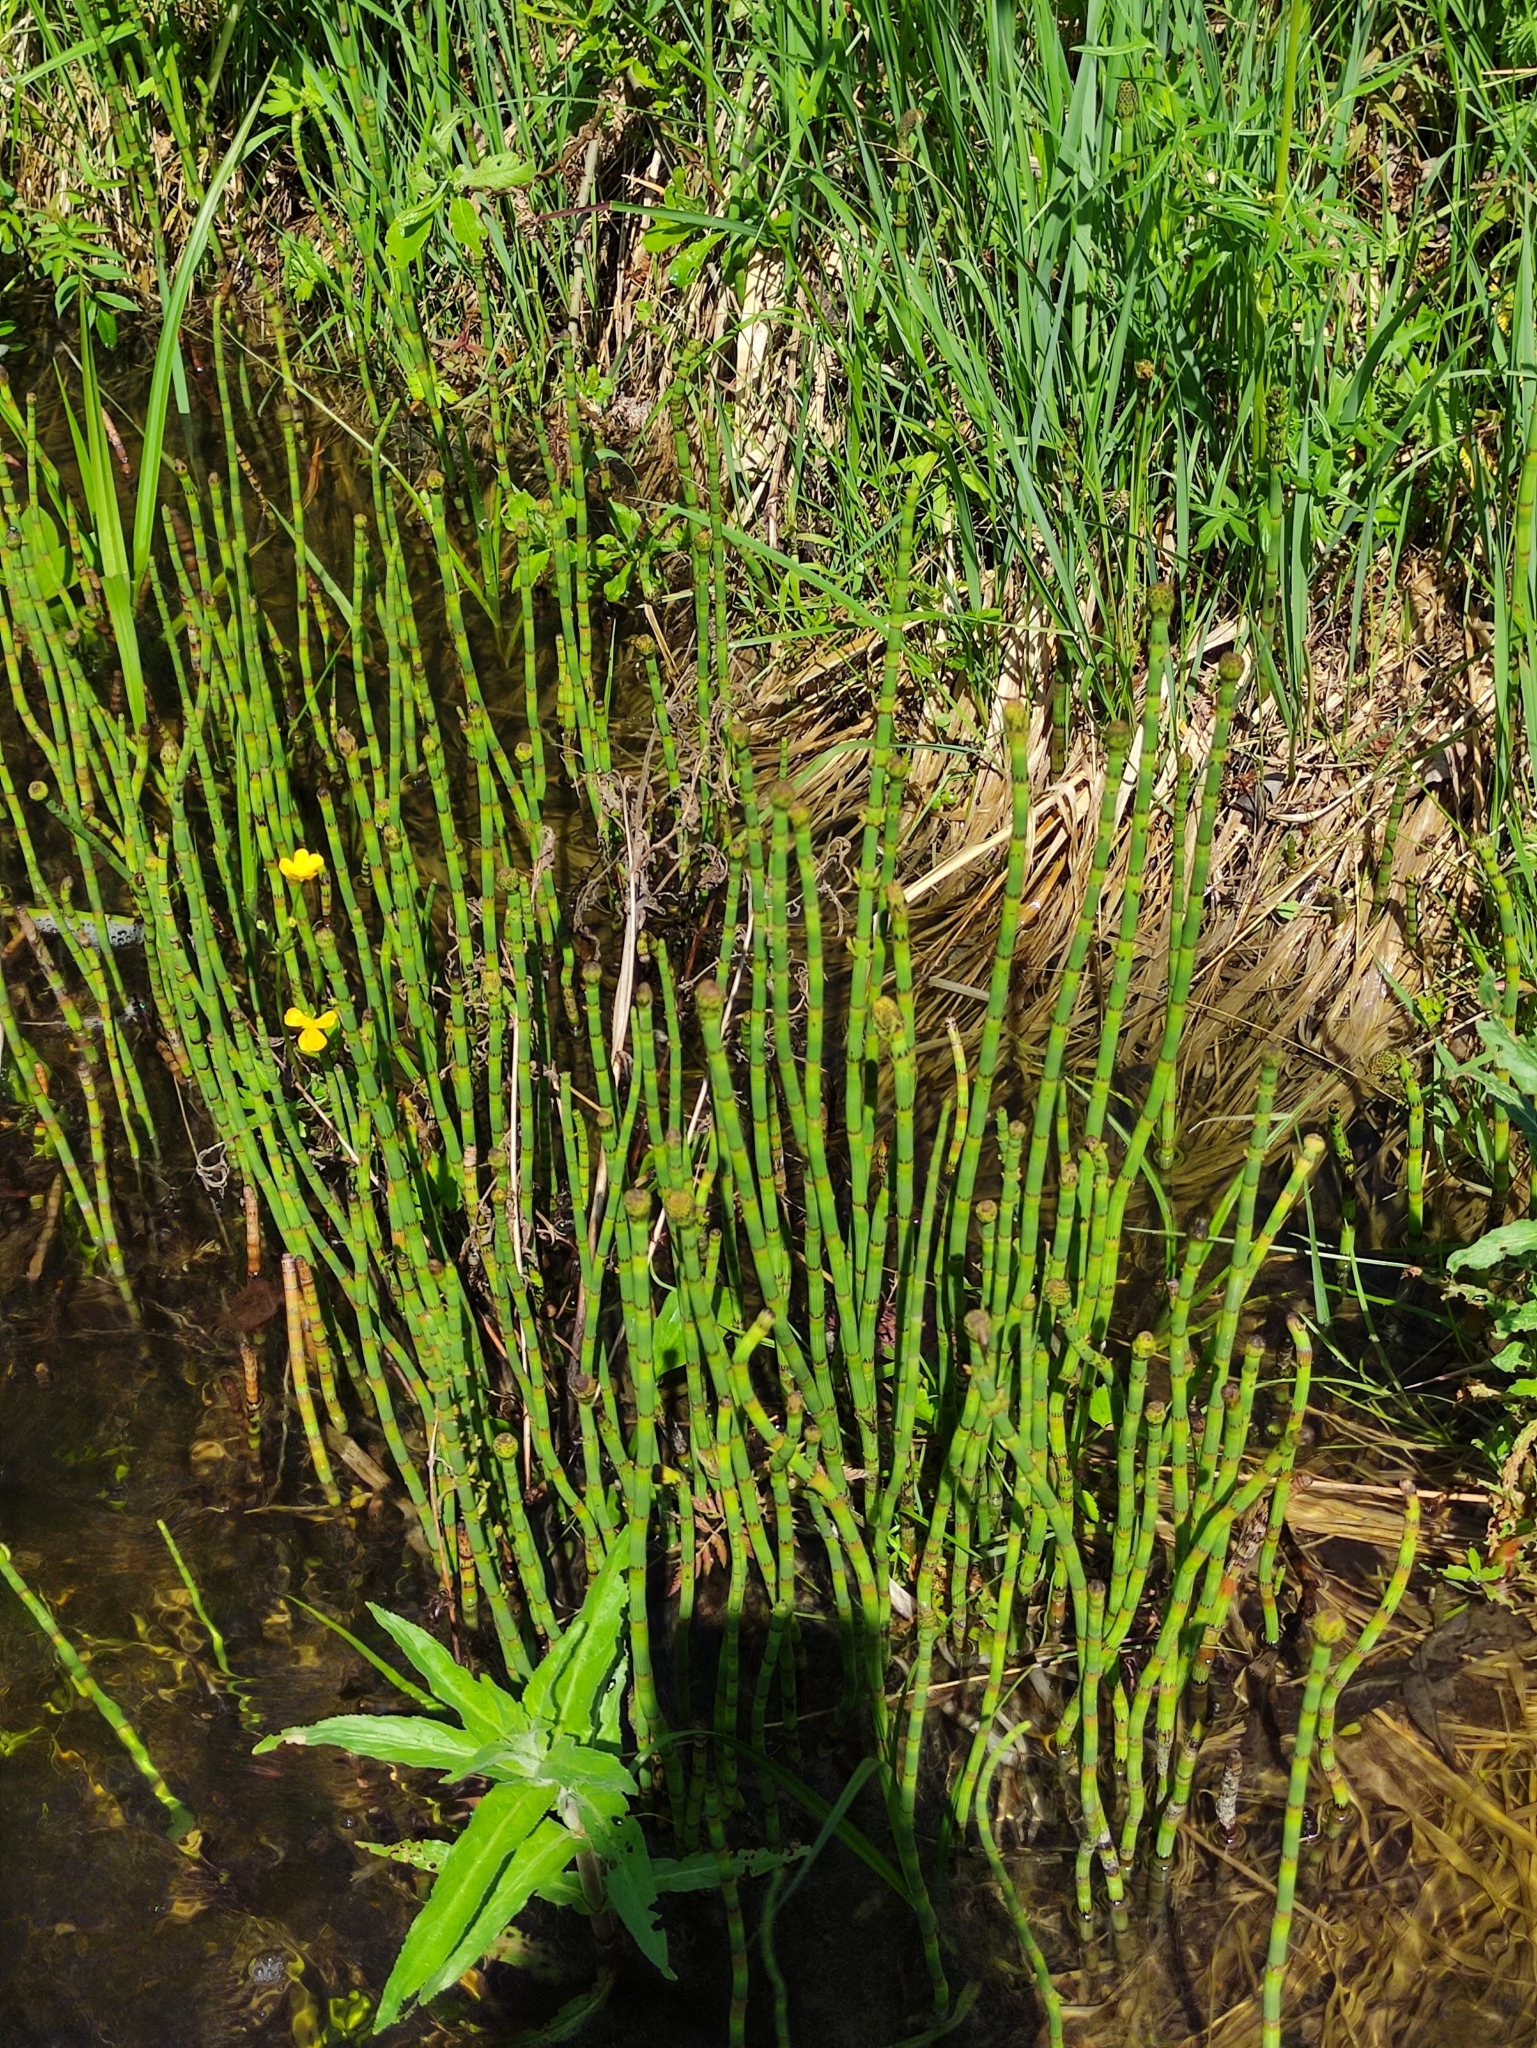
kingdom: Plantae
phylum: Tracheophyta
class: Polypodiopsida
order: Equisetales
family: Equisetaceae
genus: Equisetum
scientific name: Equisetum fluviatile
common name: Water horsetail
